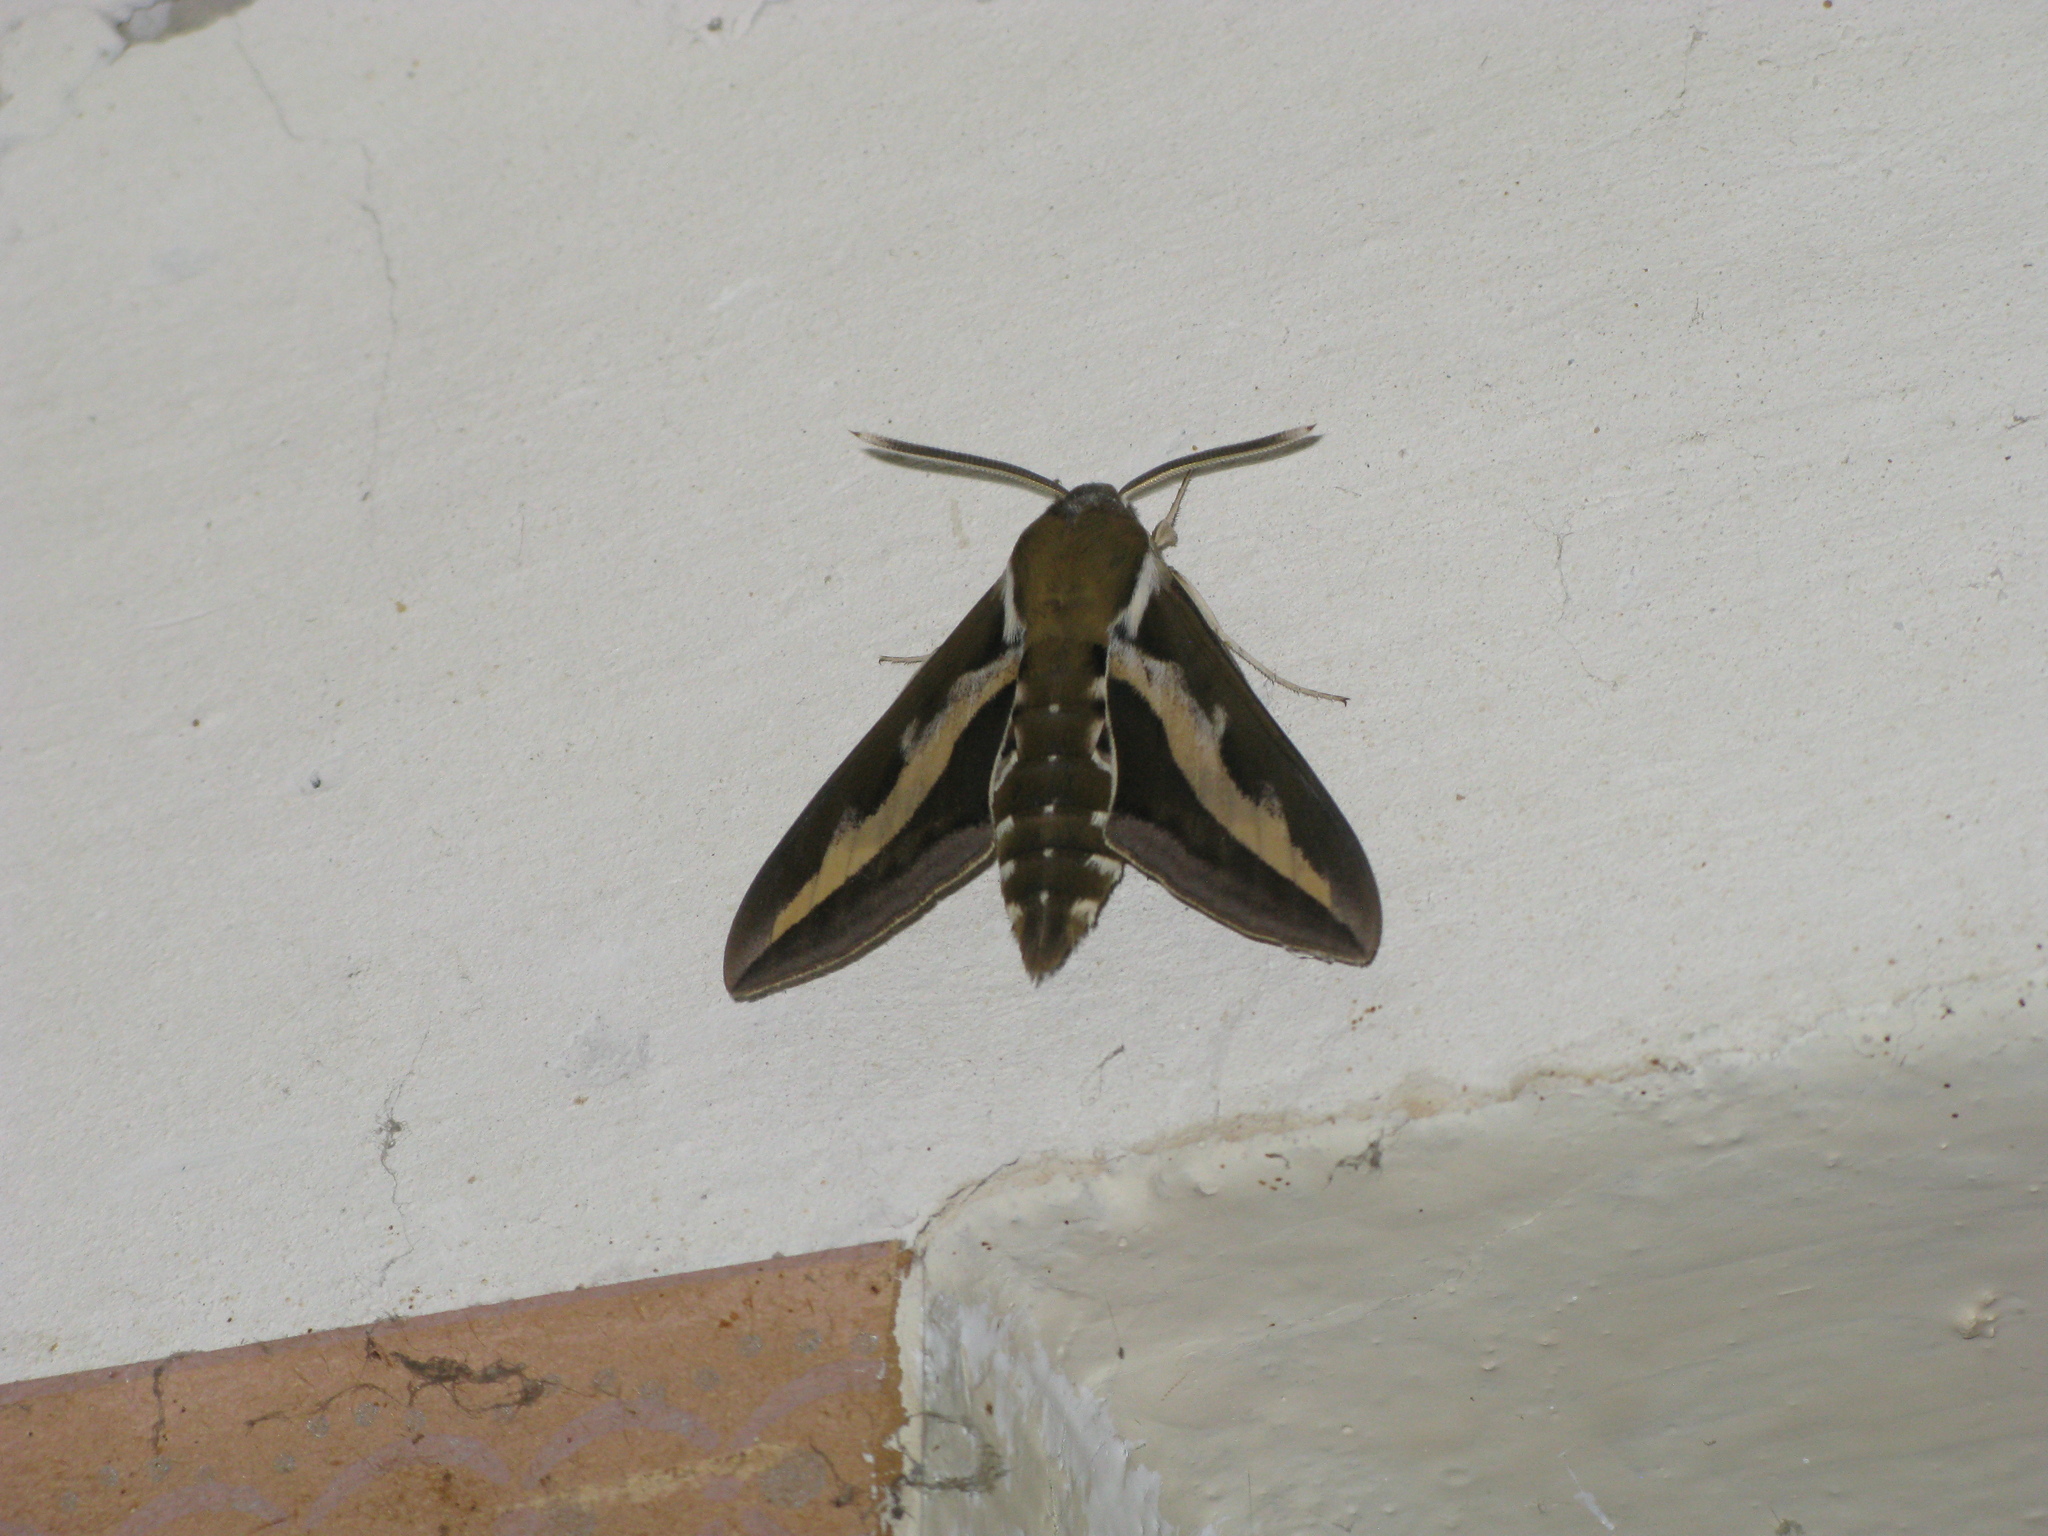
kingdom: Animalia
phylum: Arthropoda
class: Insecta
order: Lepidoptera
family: Sphingidae
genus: Hyles
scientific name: Hyles gallii
